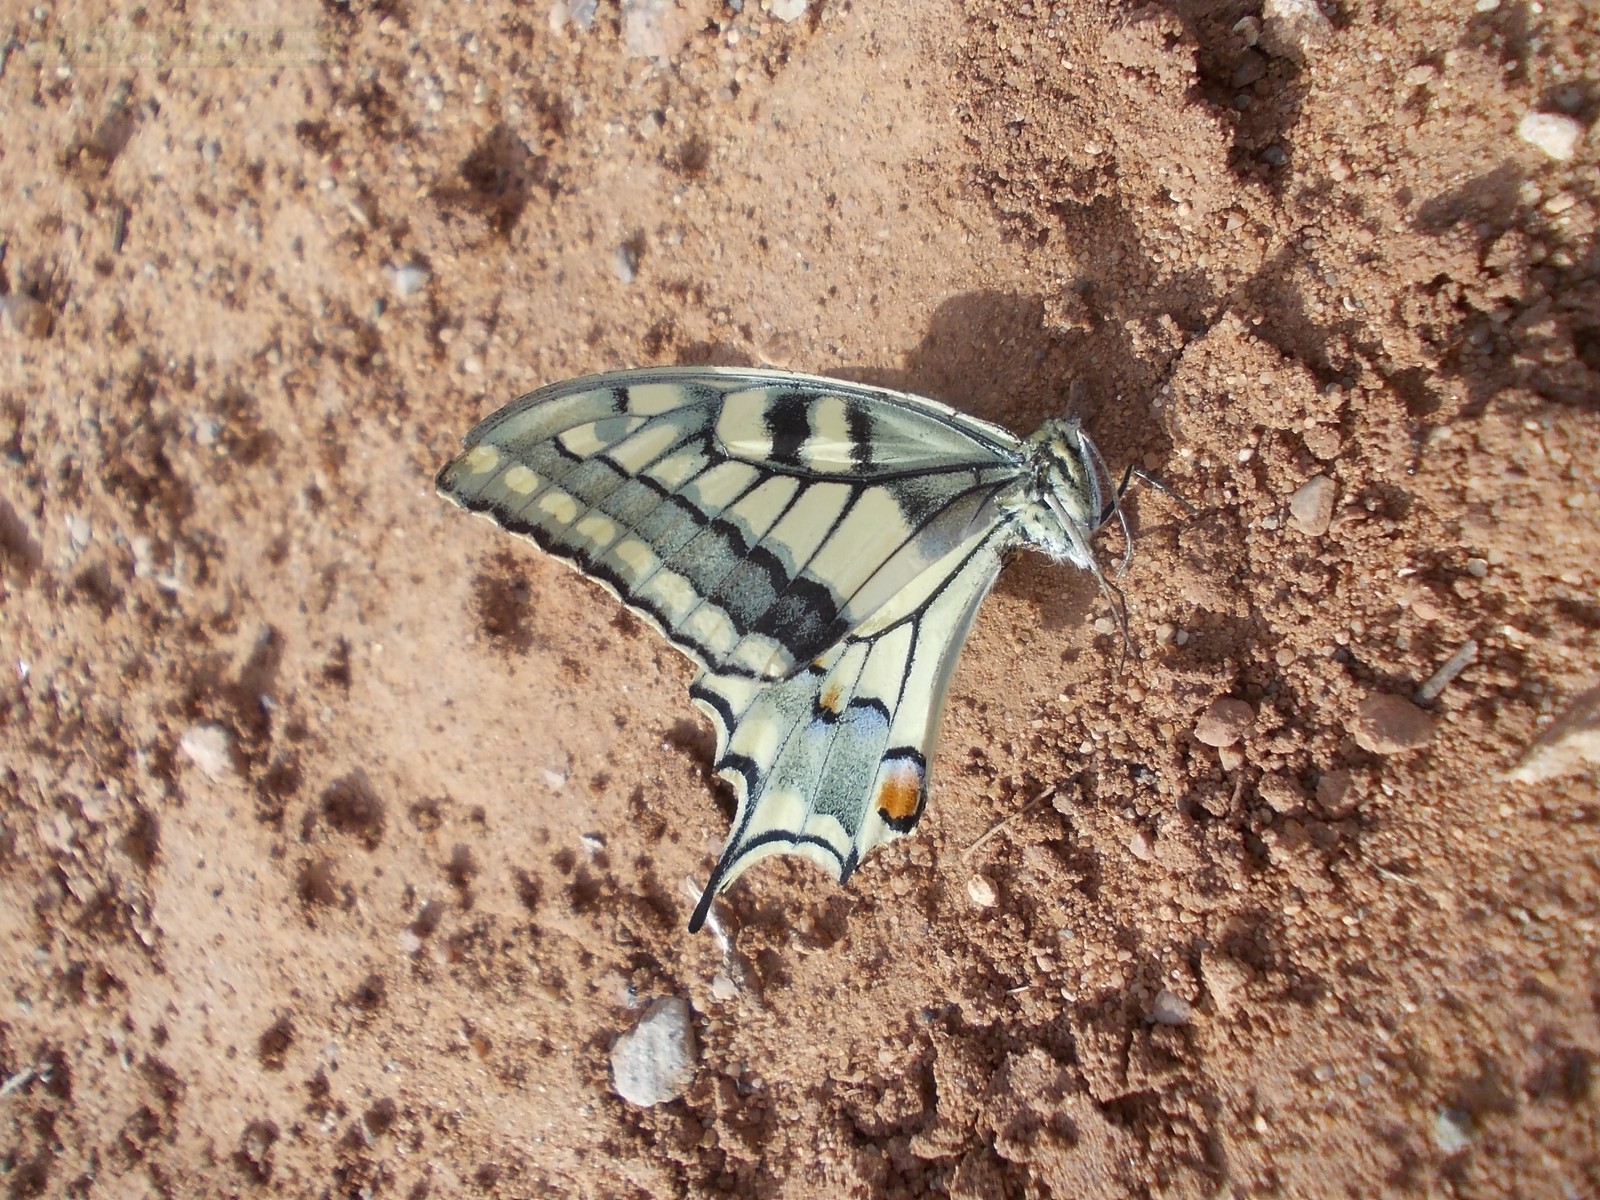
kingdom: Animalia
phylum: Arthropoda
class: Insecta
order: Lepidoptera
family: Papilionidae
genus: Papilio
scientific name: Papilio machaon
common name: Swallowtail
